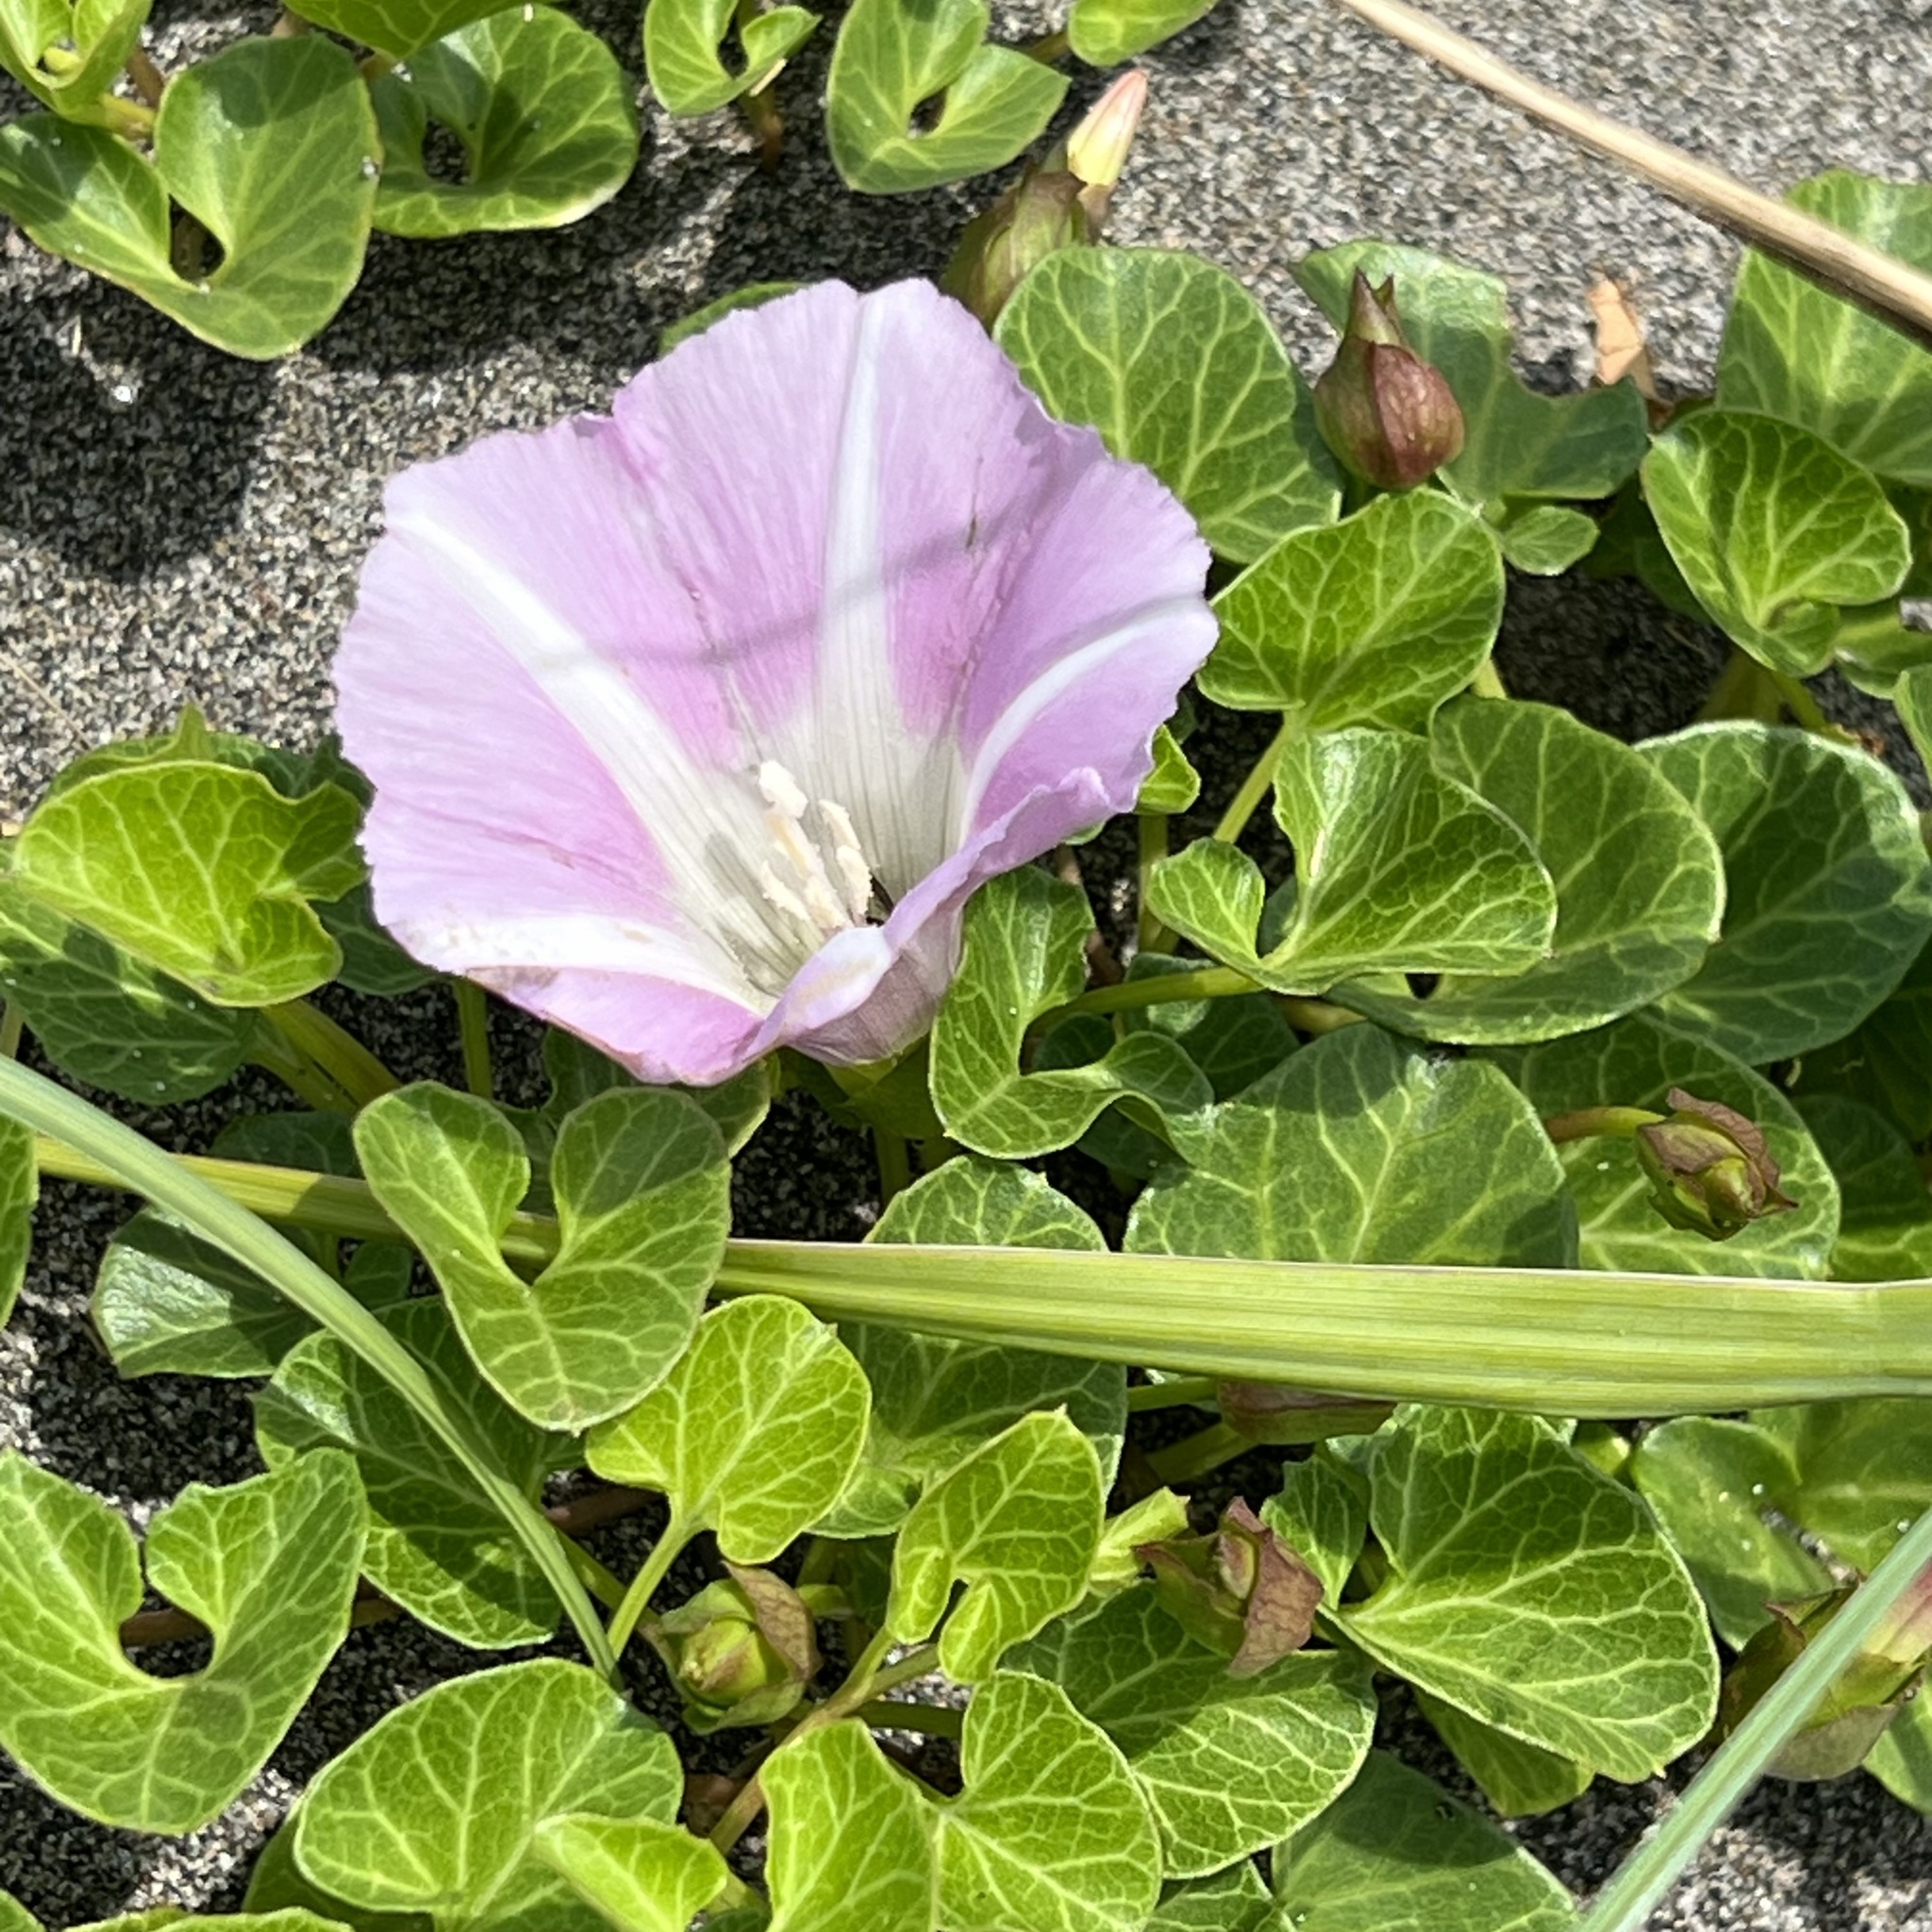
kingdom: Plantae
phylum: Tracheophyta
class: Magnoliopsida
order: Solanales
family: Convolvulaceae
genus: Calystegia
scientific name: Calystegia soldanella
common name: Sea bindweed
